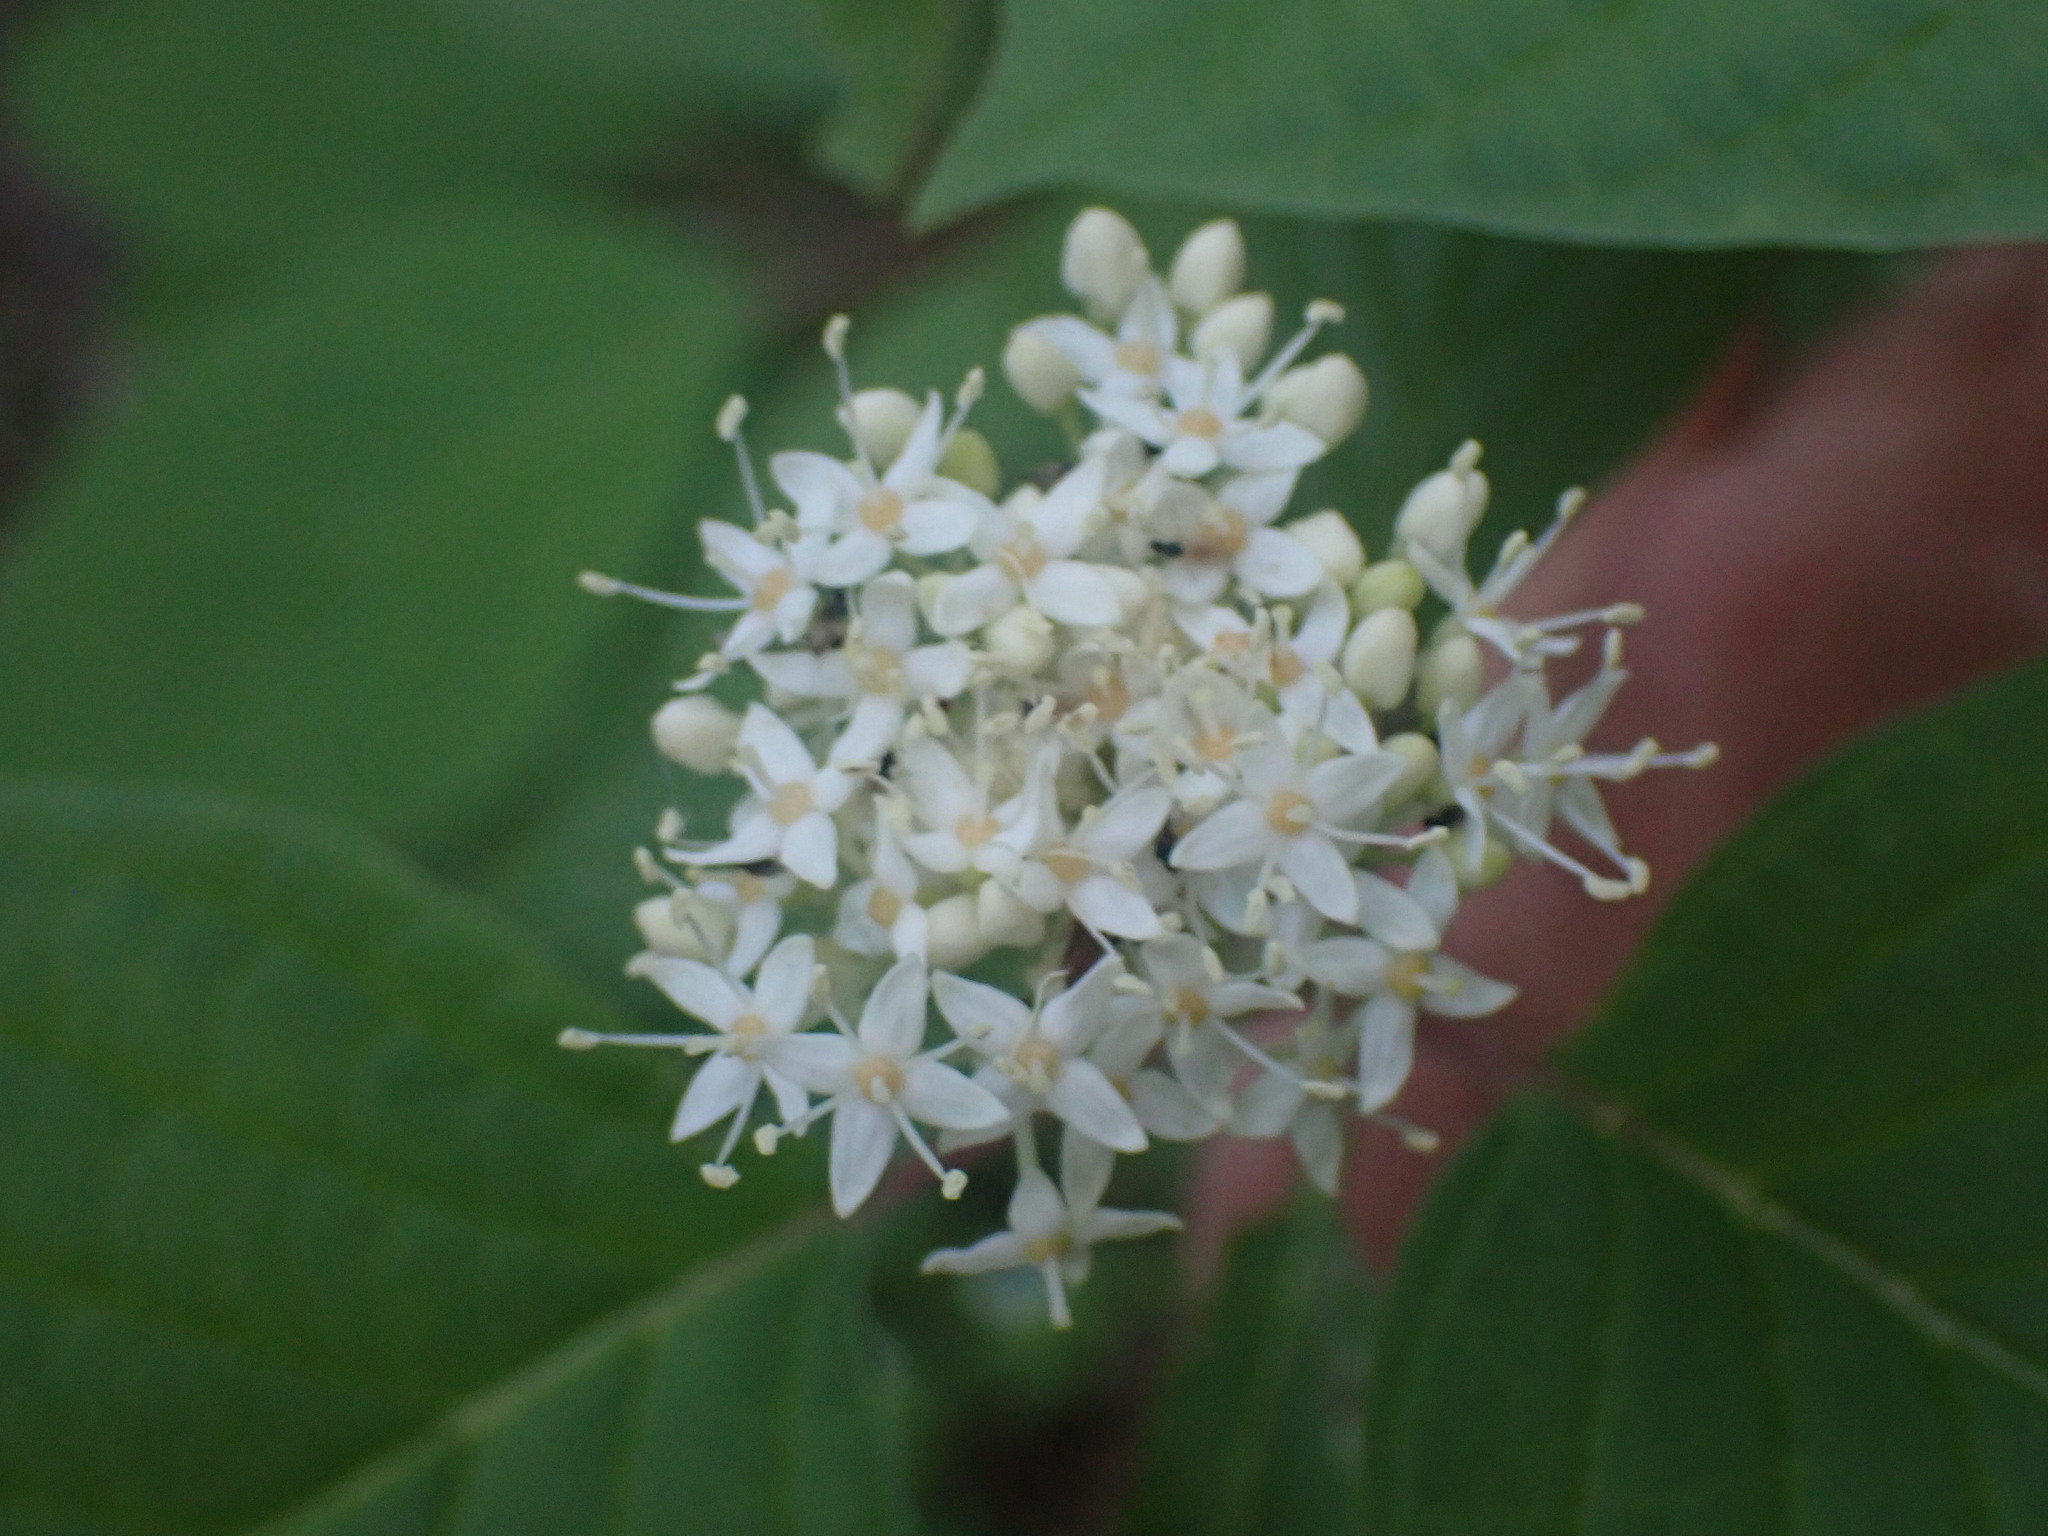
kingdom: Plantae
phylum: Tracheophyta
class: Magnoliopsida
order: Cornales
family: Cornaceae
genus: Cornus
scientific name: Cornus sericea
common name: Red-osier dogwood
